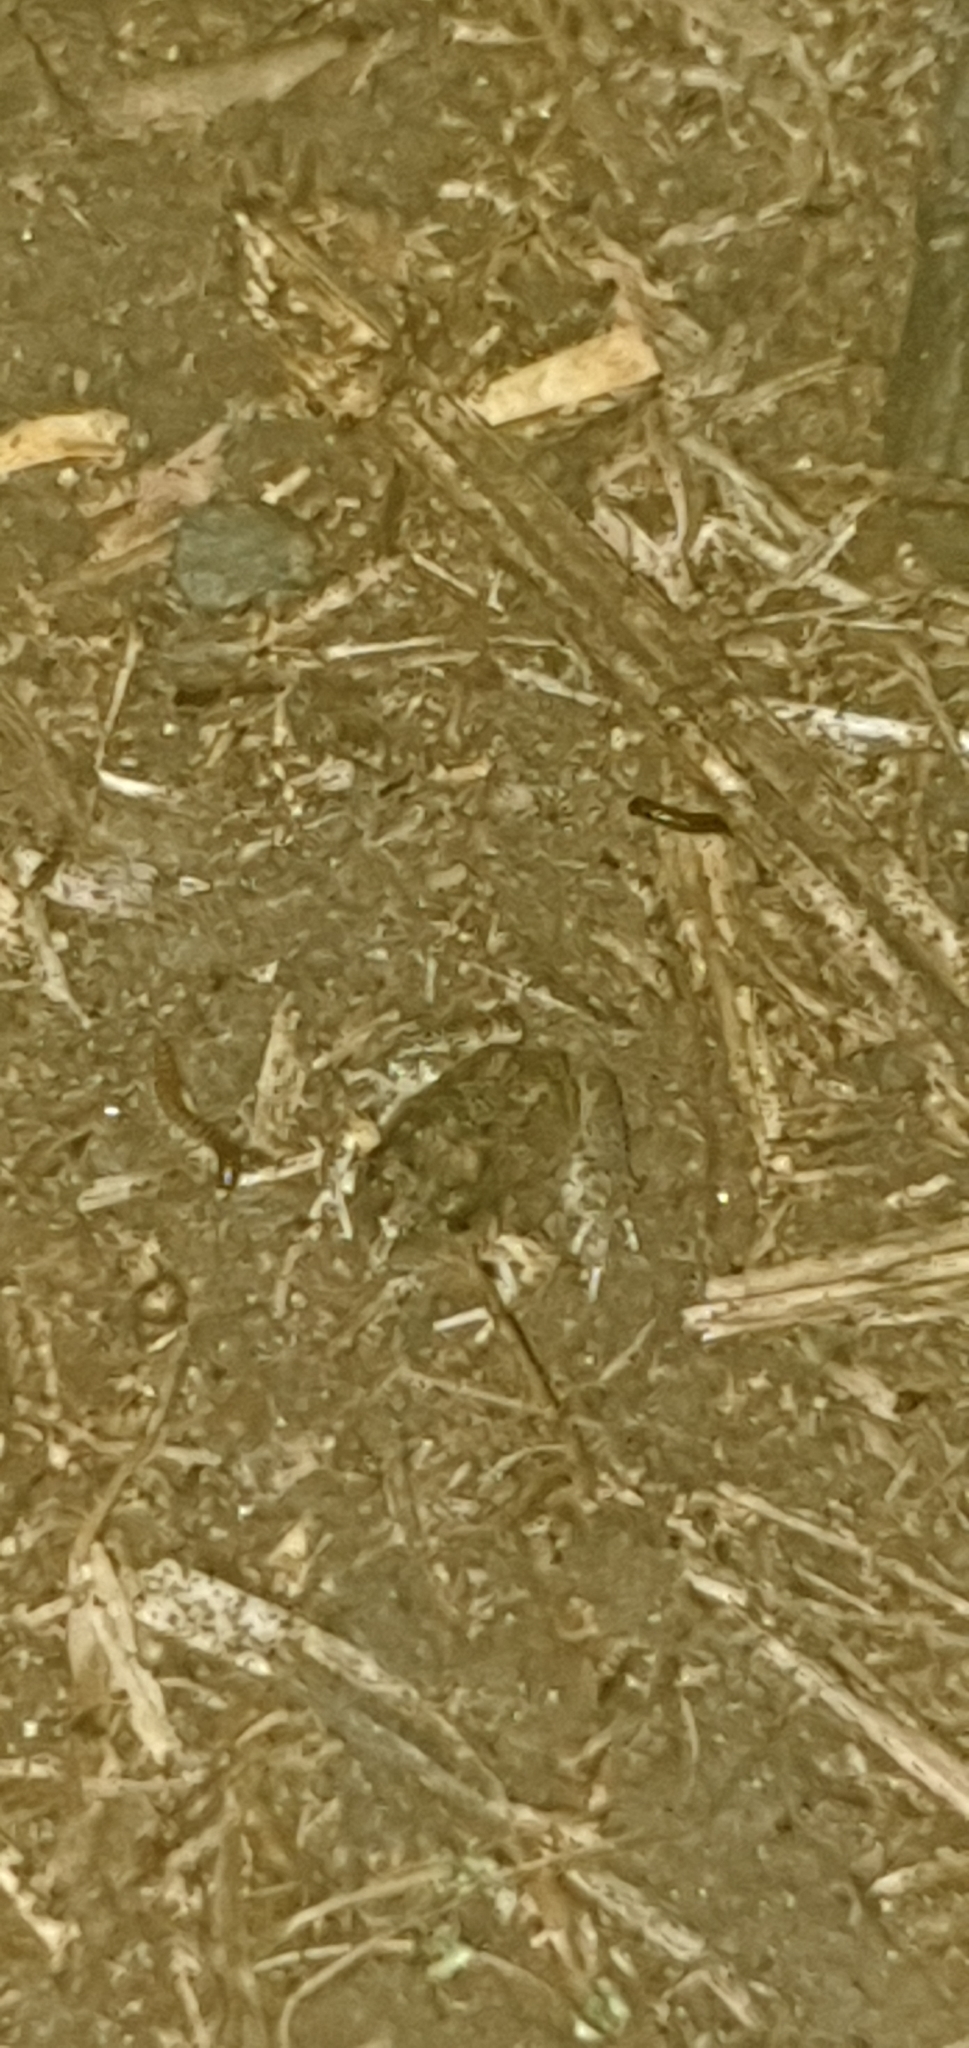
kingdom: Animalia
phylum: Chordata
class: Amphibia
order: Anura
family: Limnodynastidae
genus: Platyplectrum
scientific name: Platyplectrum ornatum
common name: Ornate burrowing frog
